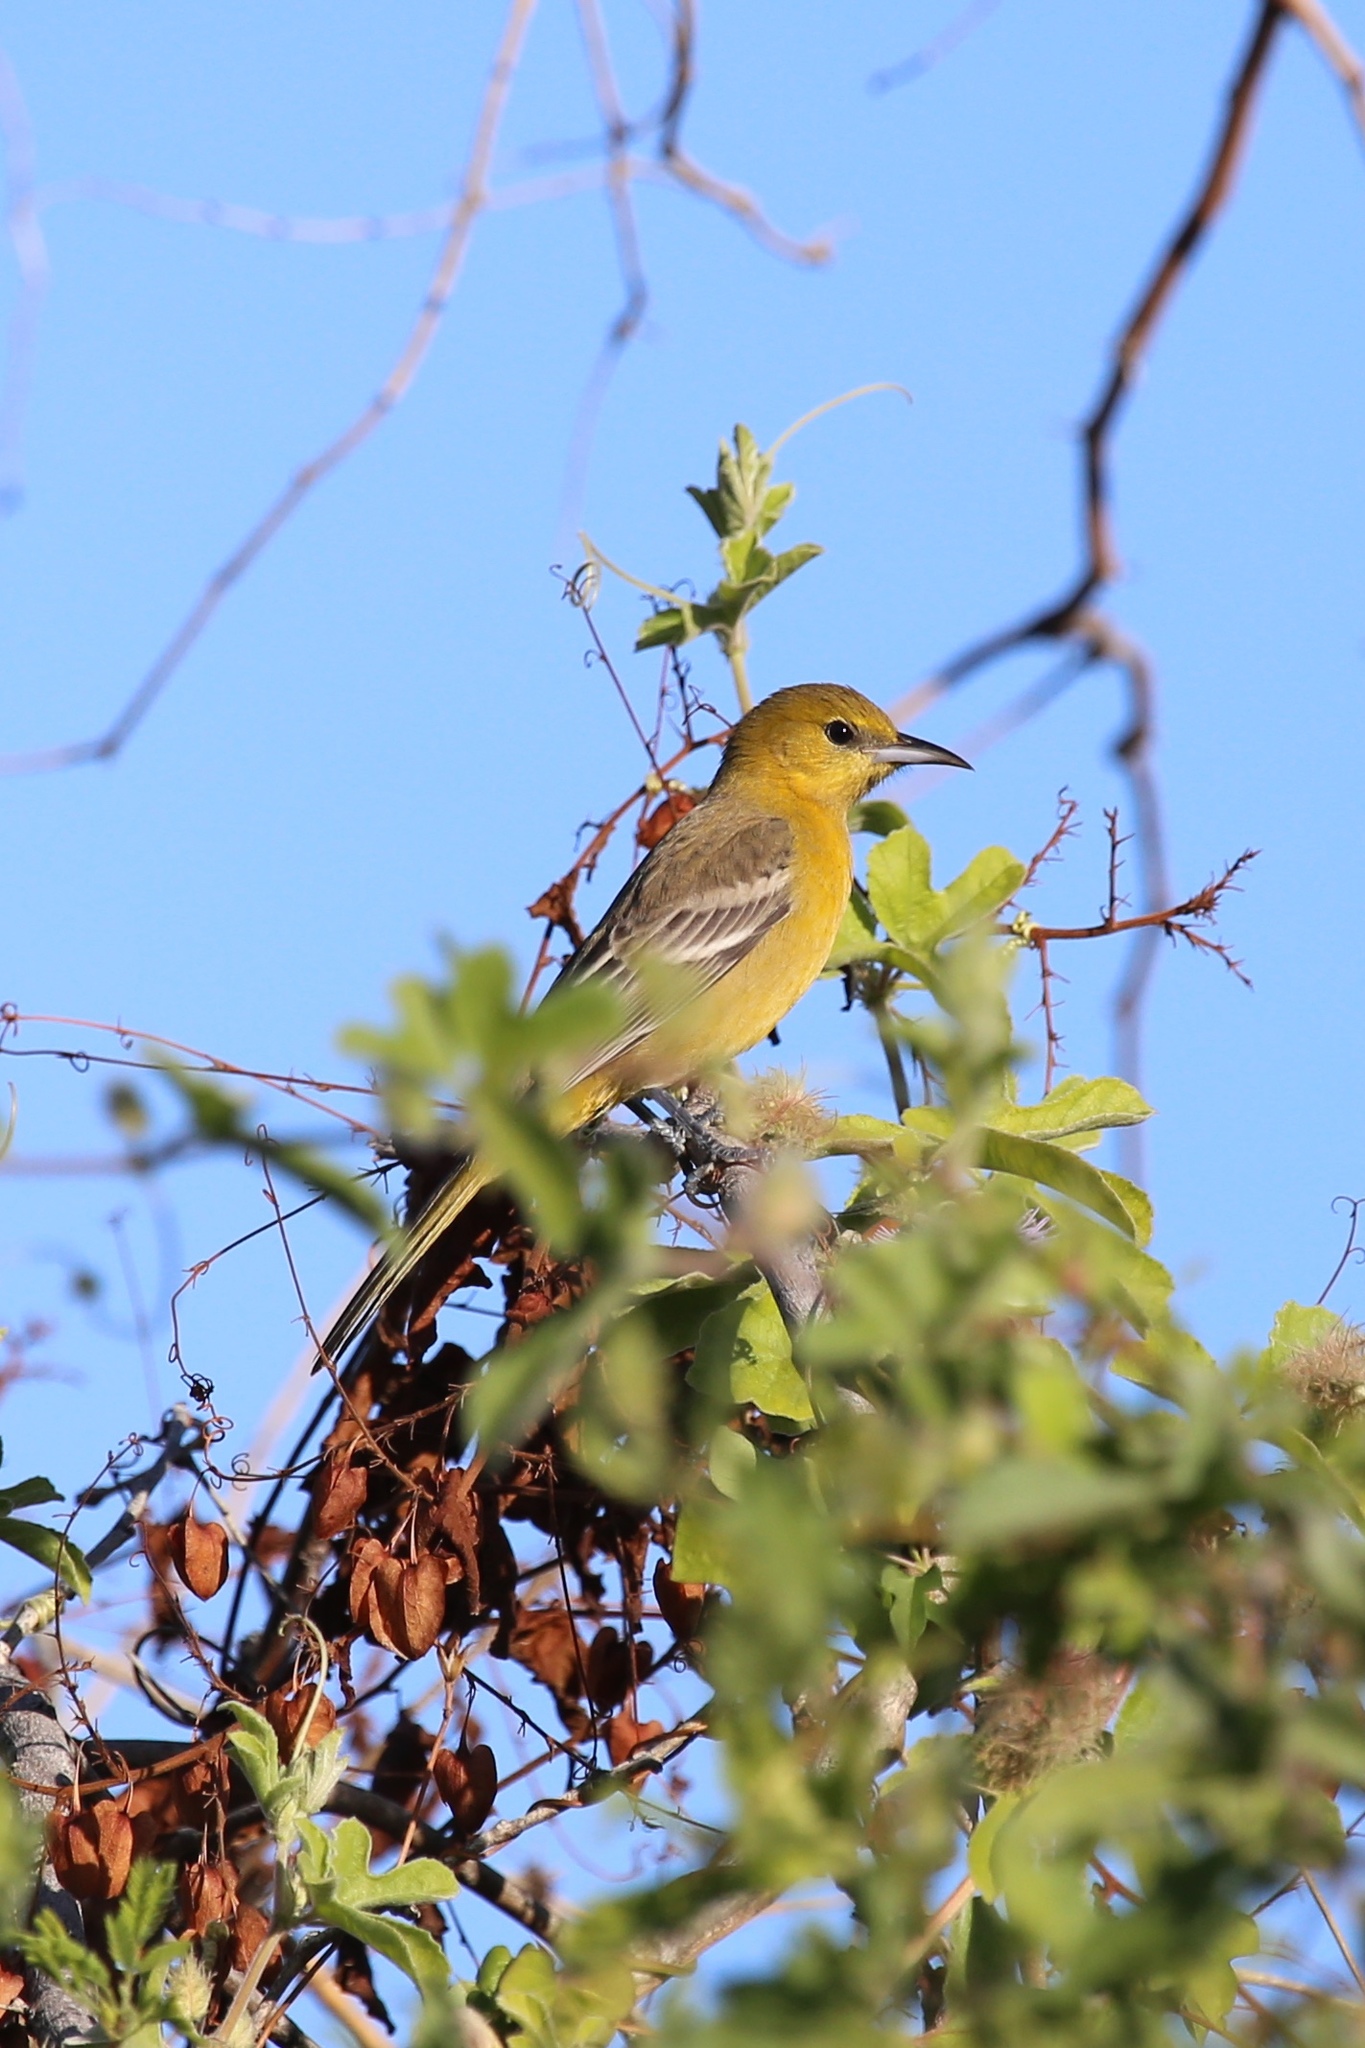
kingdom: Animalia
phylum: Chordata
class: Aves
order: Passeriformes
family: Icteridae
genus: Icterus
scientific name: Icterus cucullatus
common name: Hooded oriole
